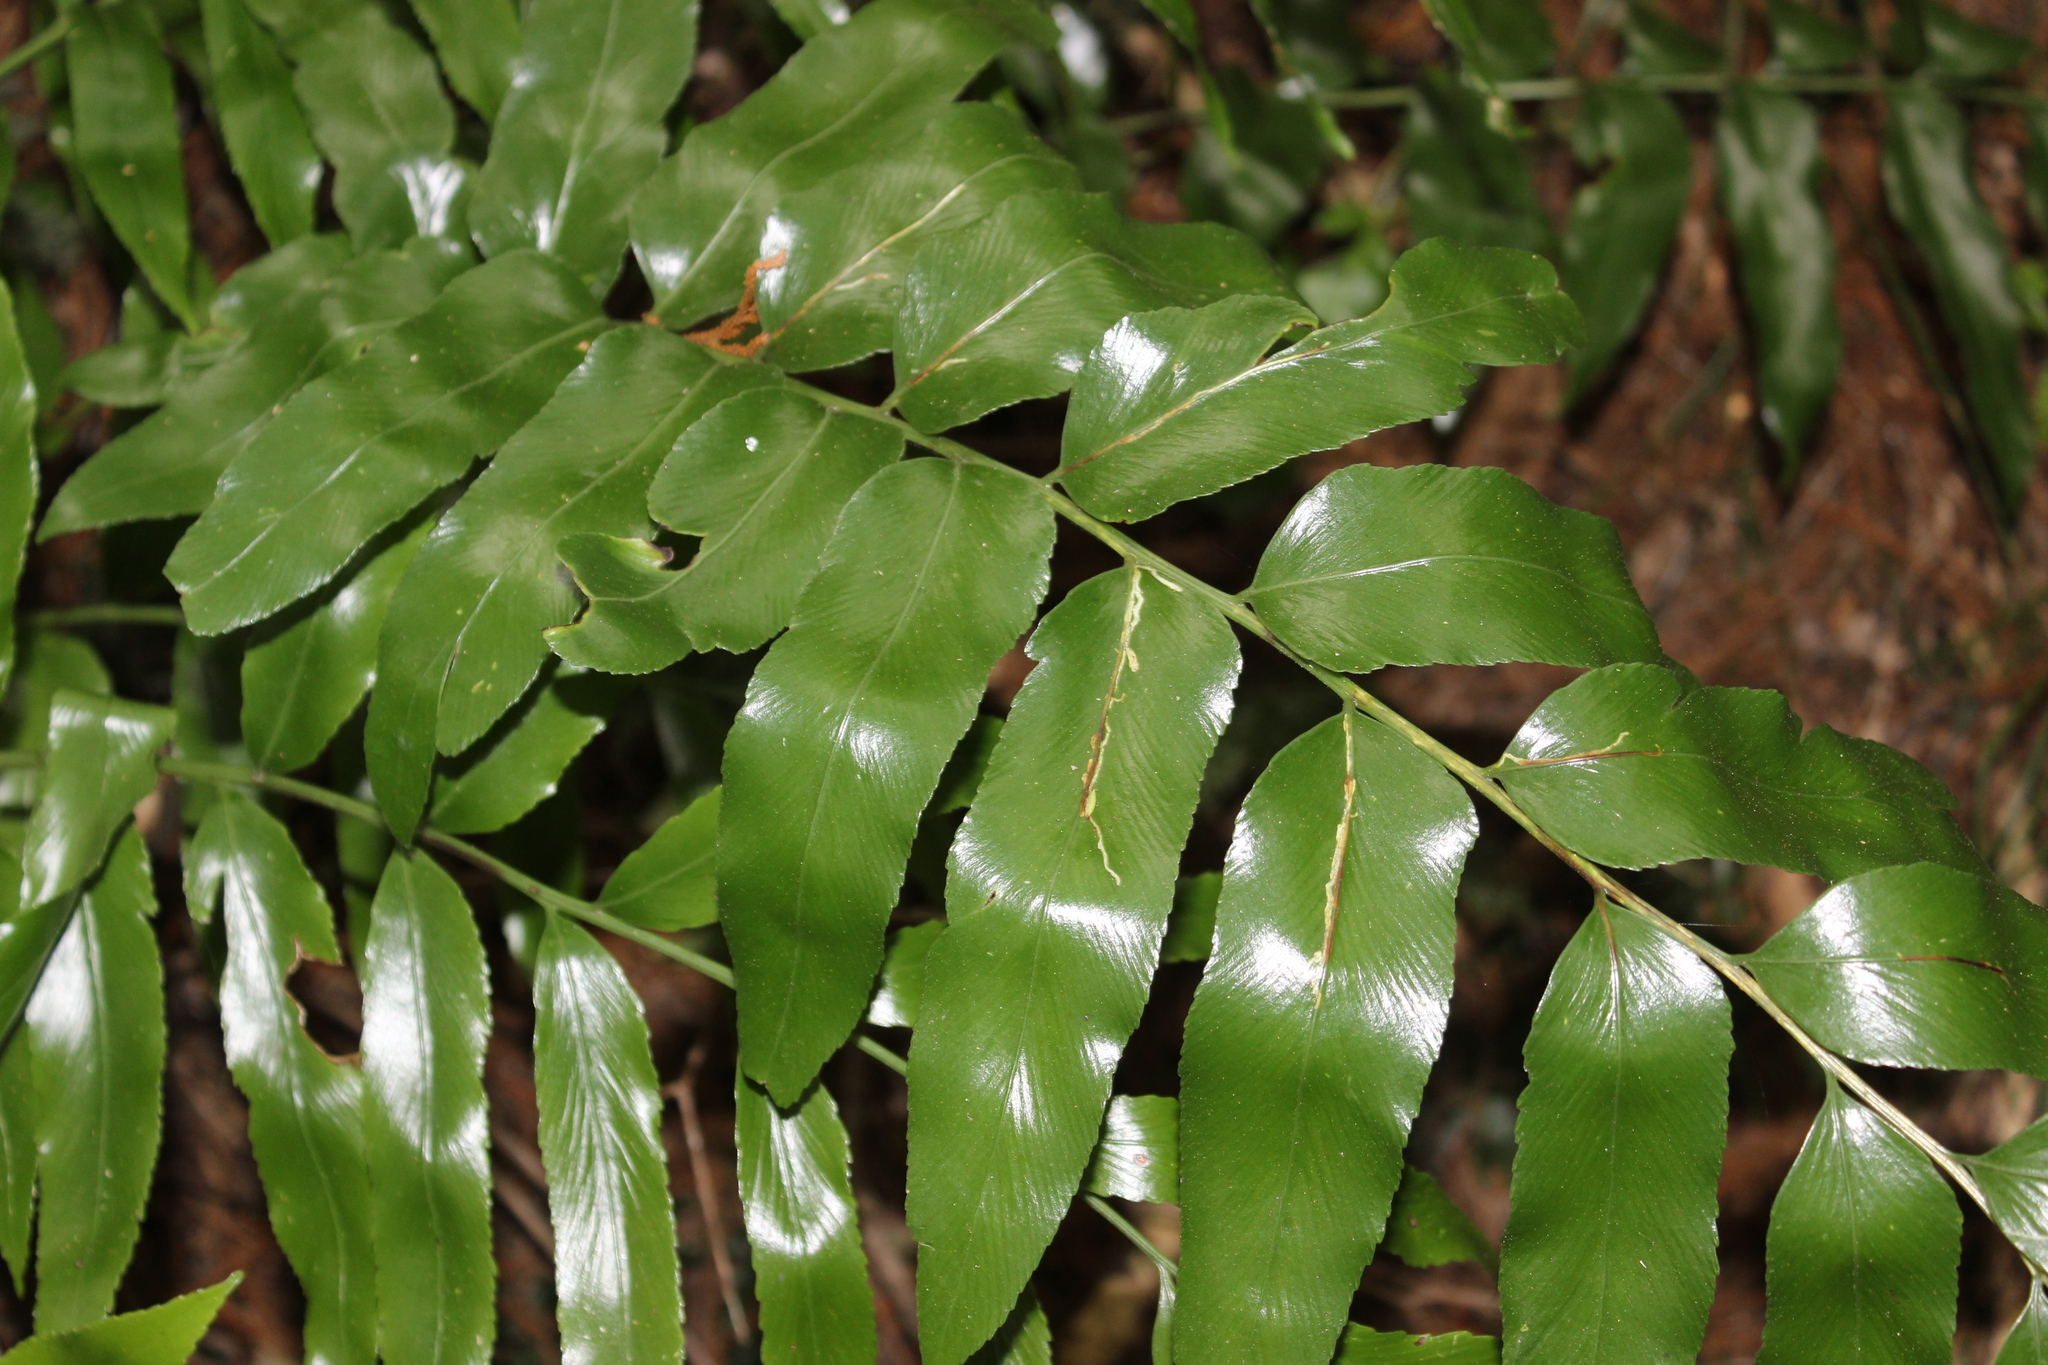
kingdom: Plantae
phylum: Tracheophyta
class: Polypodiopsida
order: Polypodiales
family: Aspleniaceae
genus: Asplenium
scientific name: Asplenium oblongifolium
